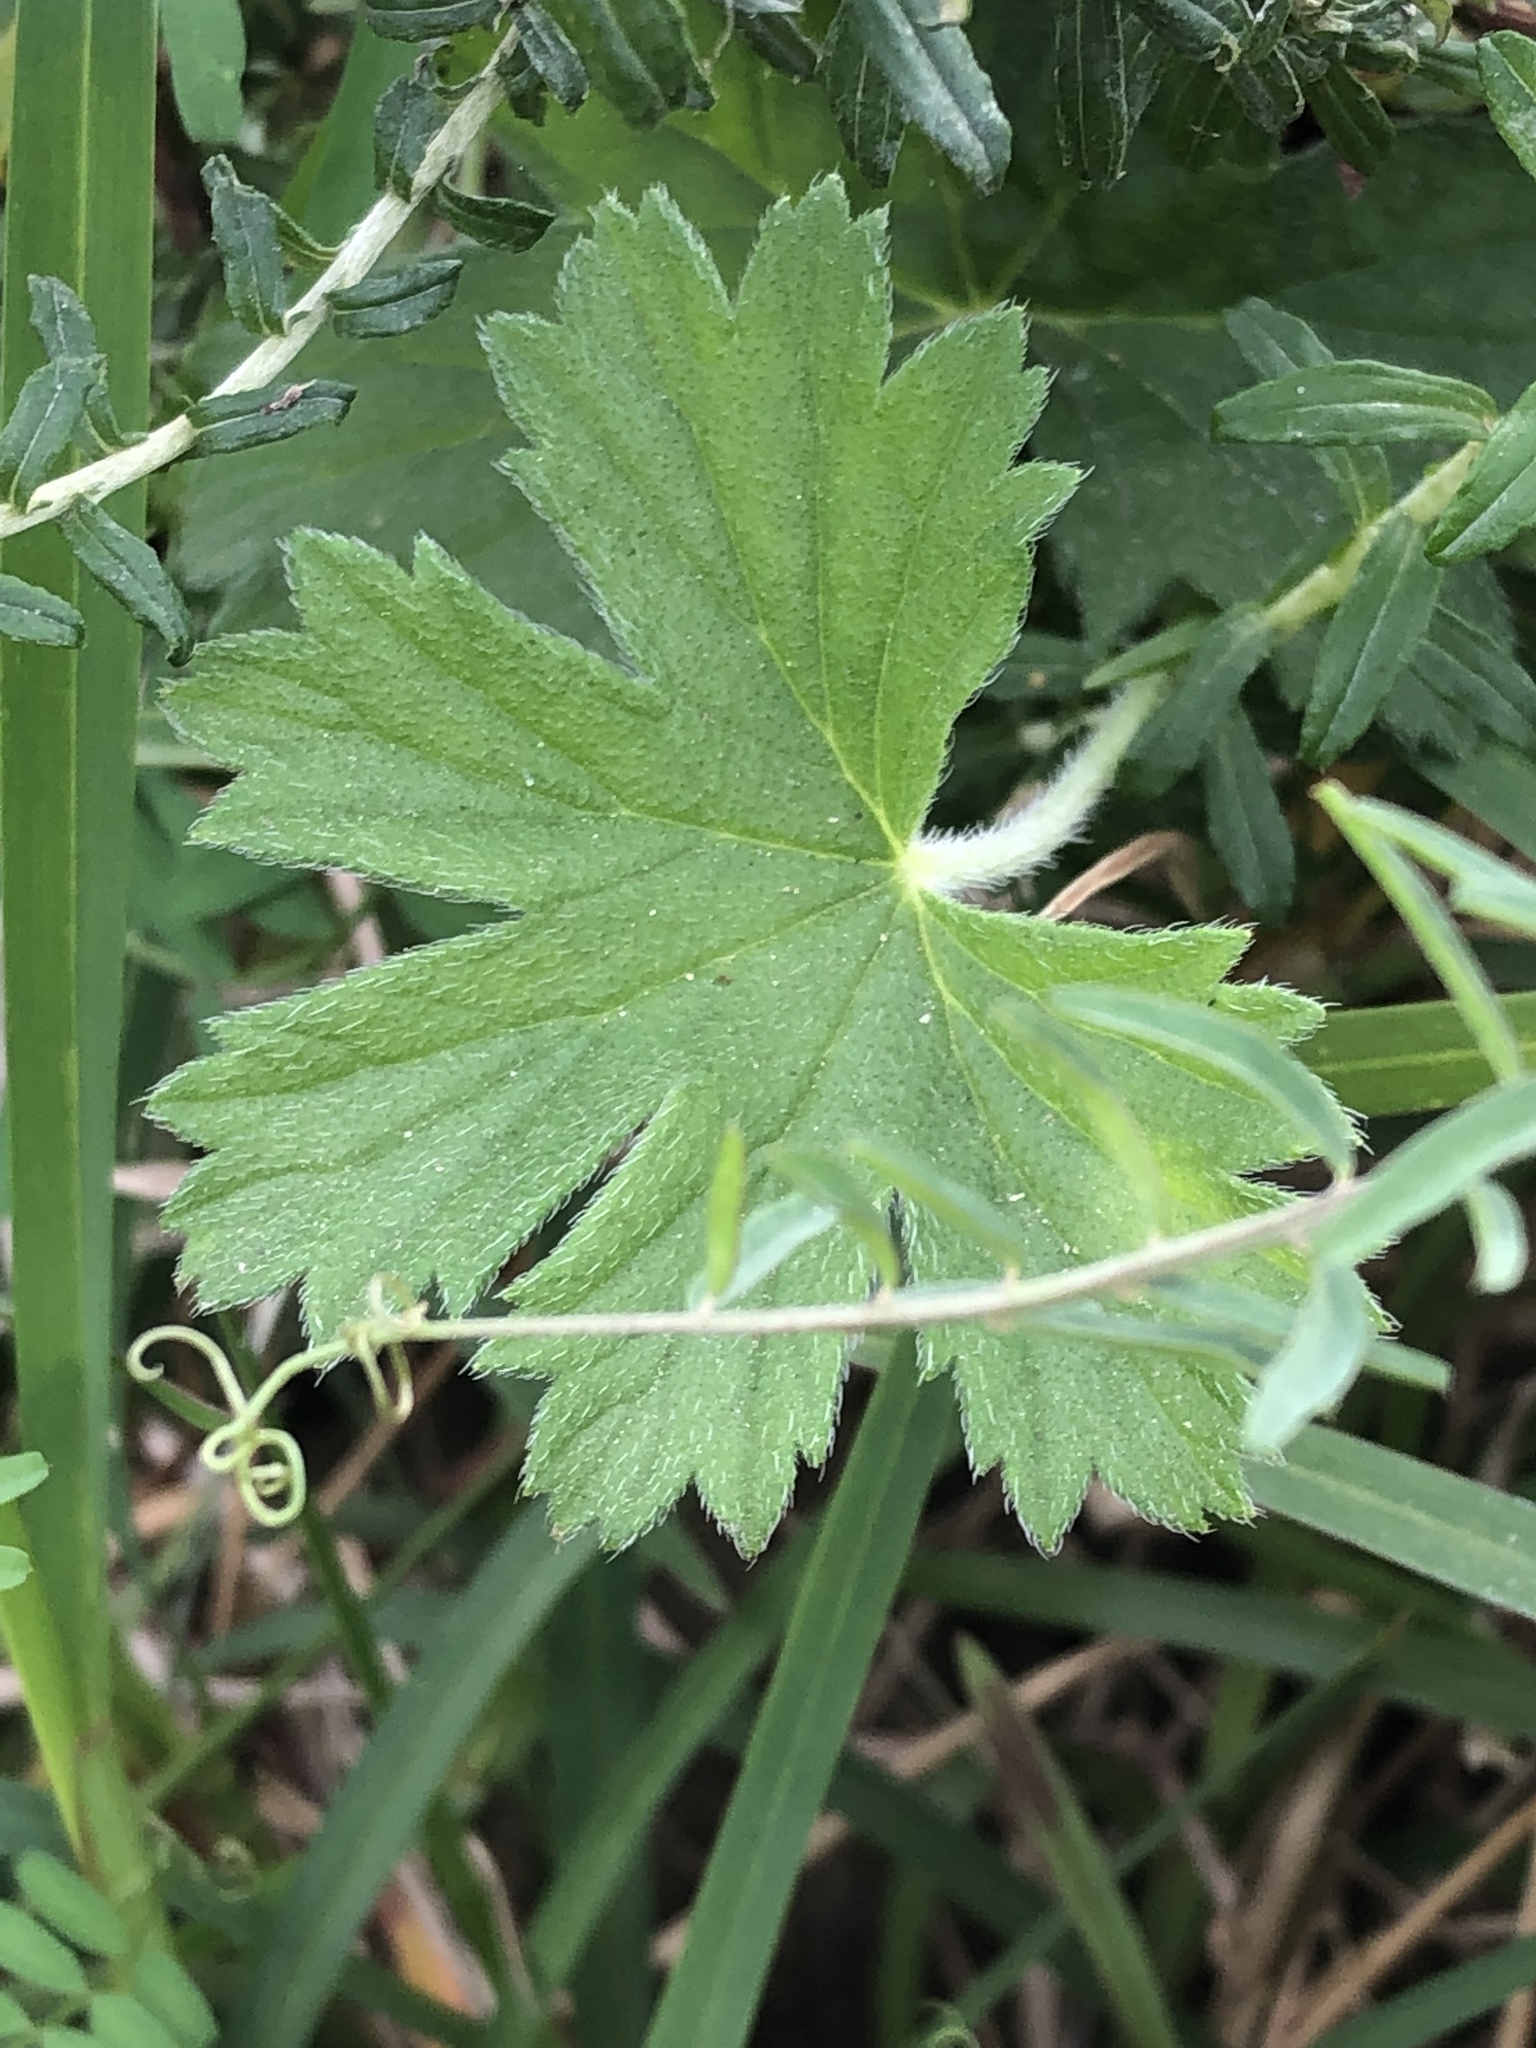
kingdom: Plantae
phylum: Tracheophyta
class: Magnoliopsida
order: Geraniales
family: Geraniaceae
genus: Pelargonium
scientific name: Pelargonium alchemilloides
